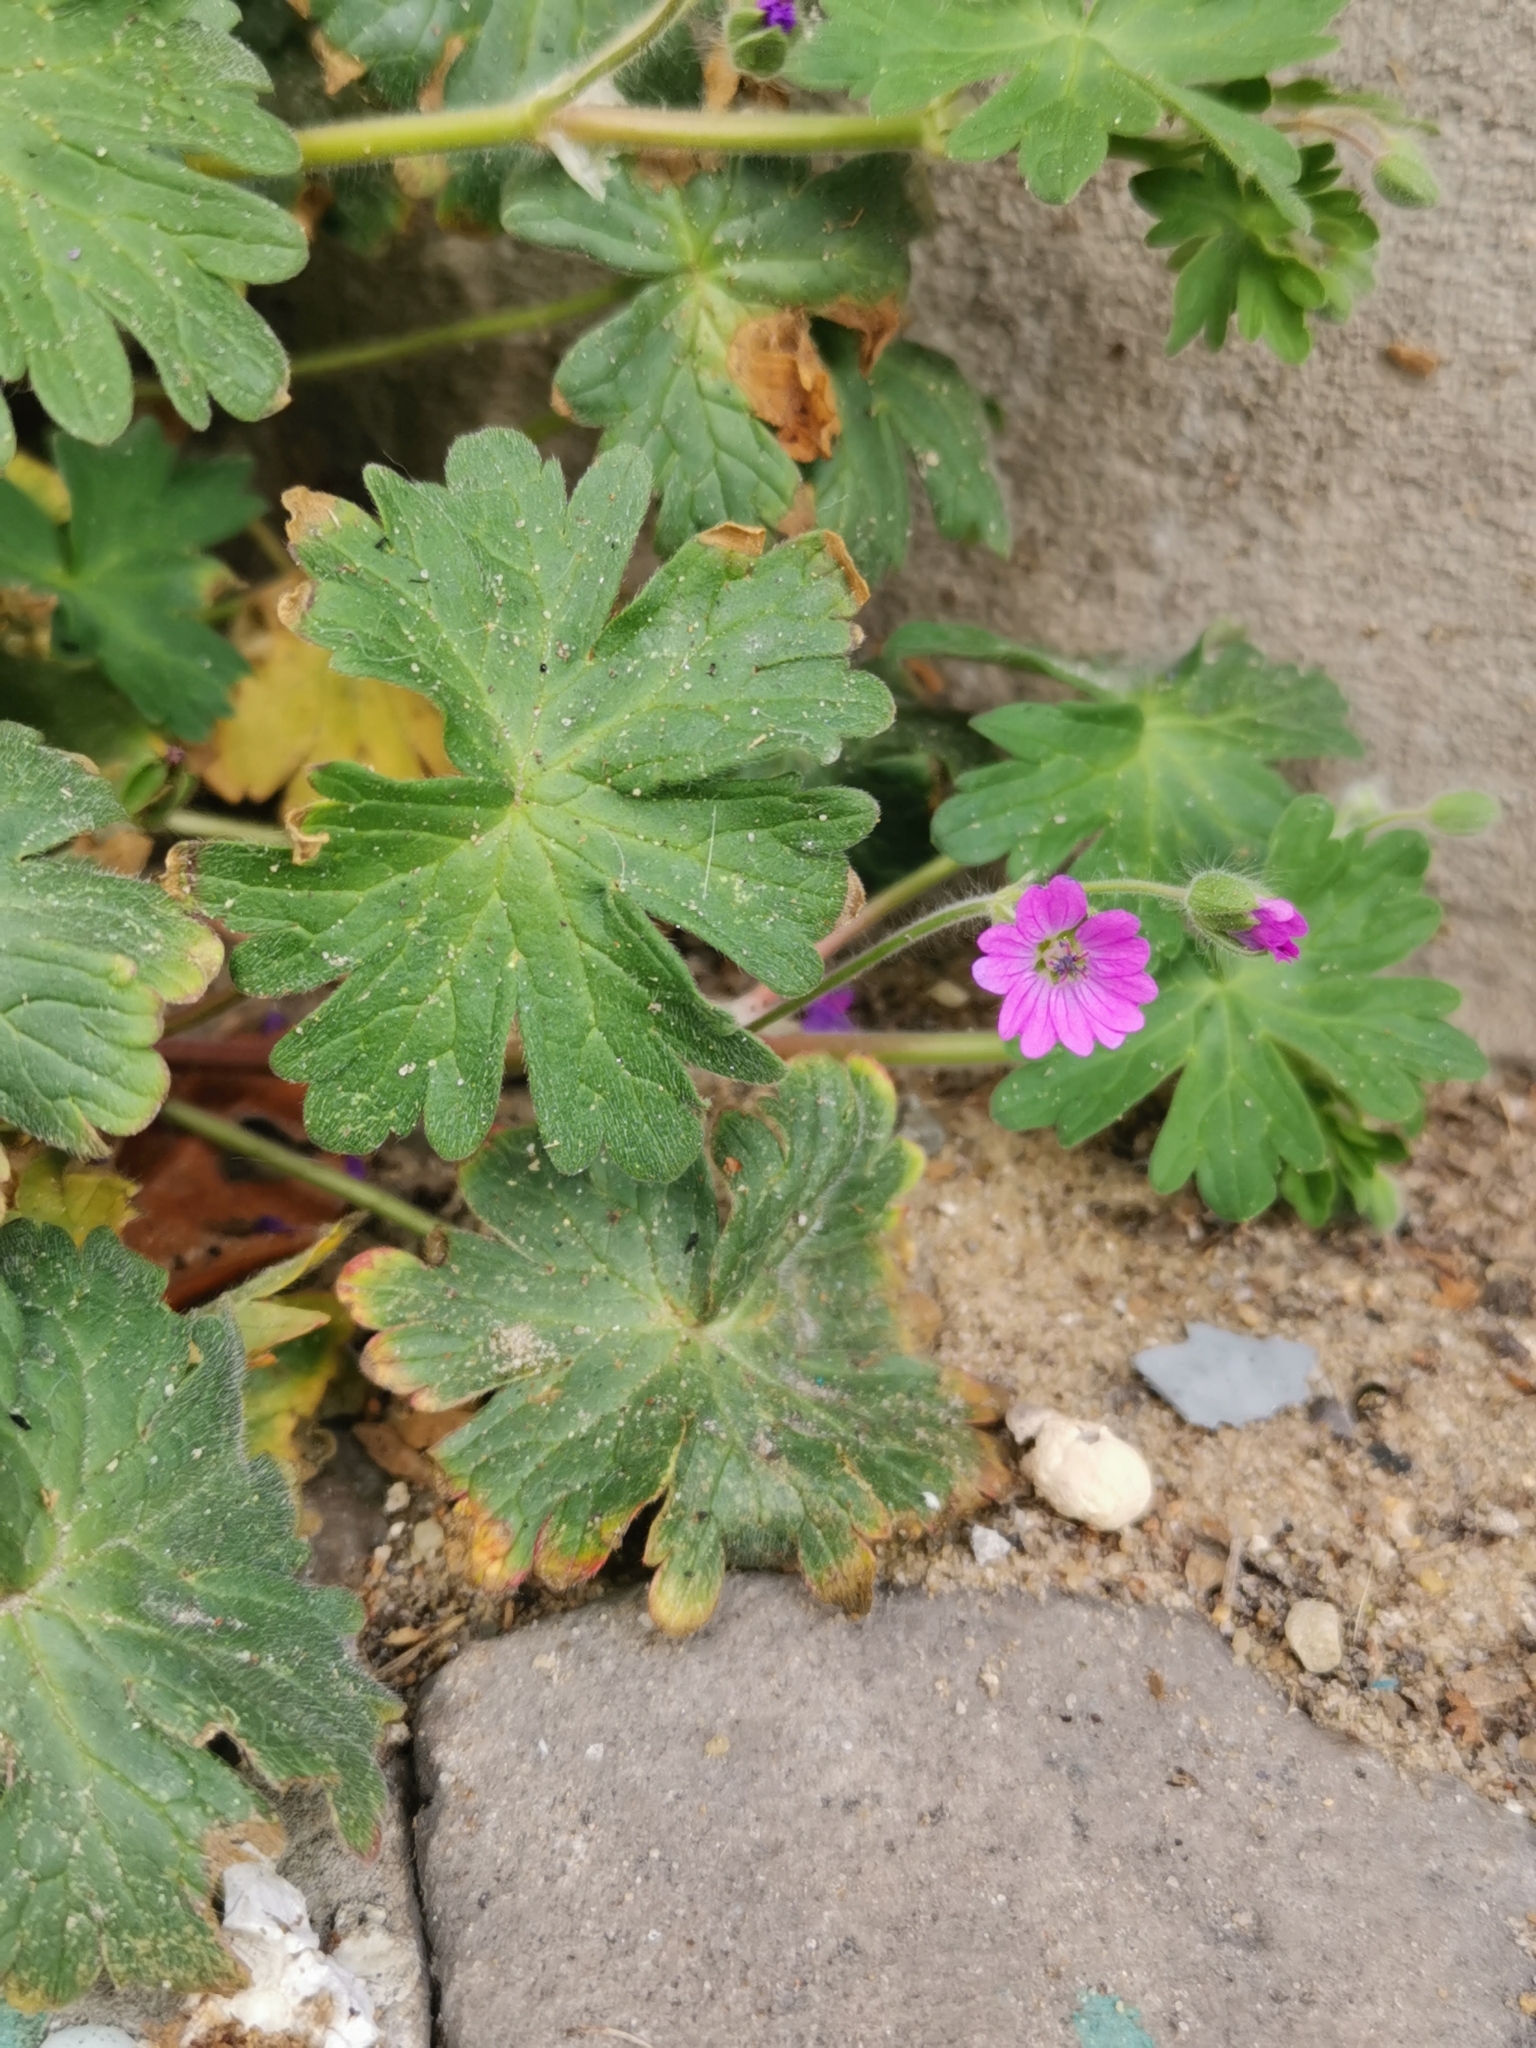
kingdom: Plantae
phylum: Tracheophyta
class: Magnoliopsida
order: Geraniales
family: Geraniaceae
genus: Geranium
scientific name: Geranium molle
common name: Dove's-foot crane's-bill
